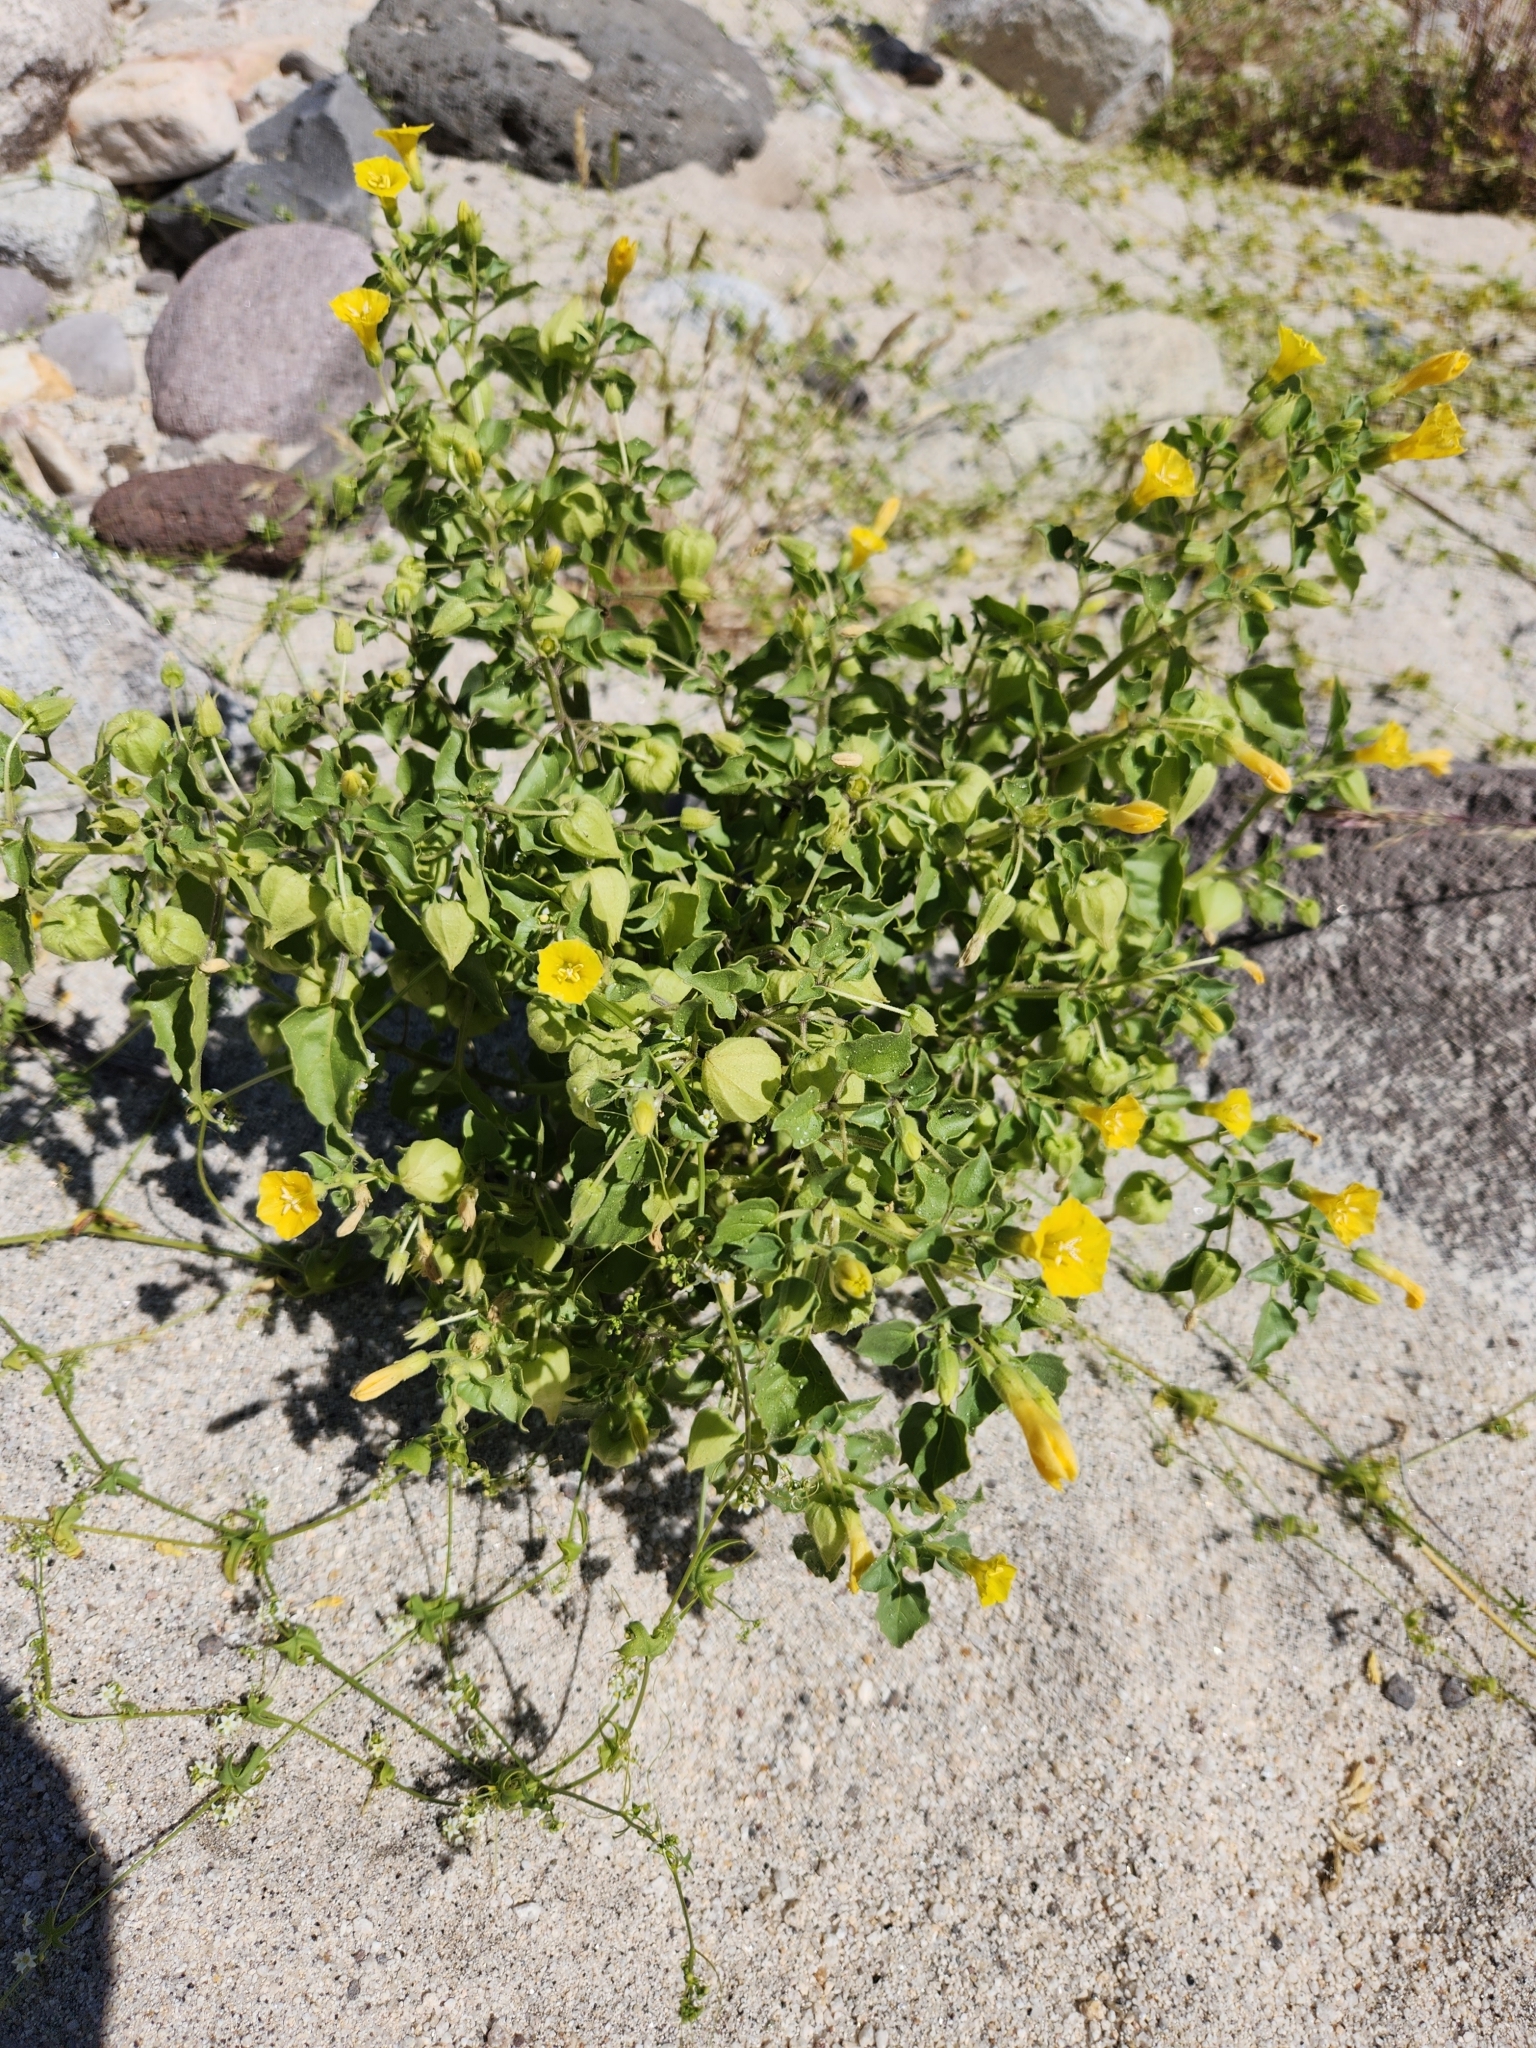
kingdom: Plantae
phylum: Tracheophyta
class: Magnoliopsida
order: Solanales
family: Solanaceae
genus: Physalis
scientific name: Physalis crassifolia
